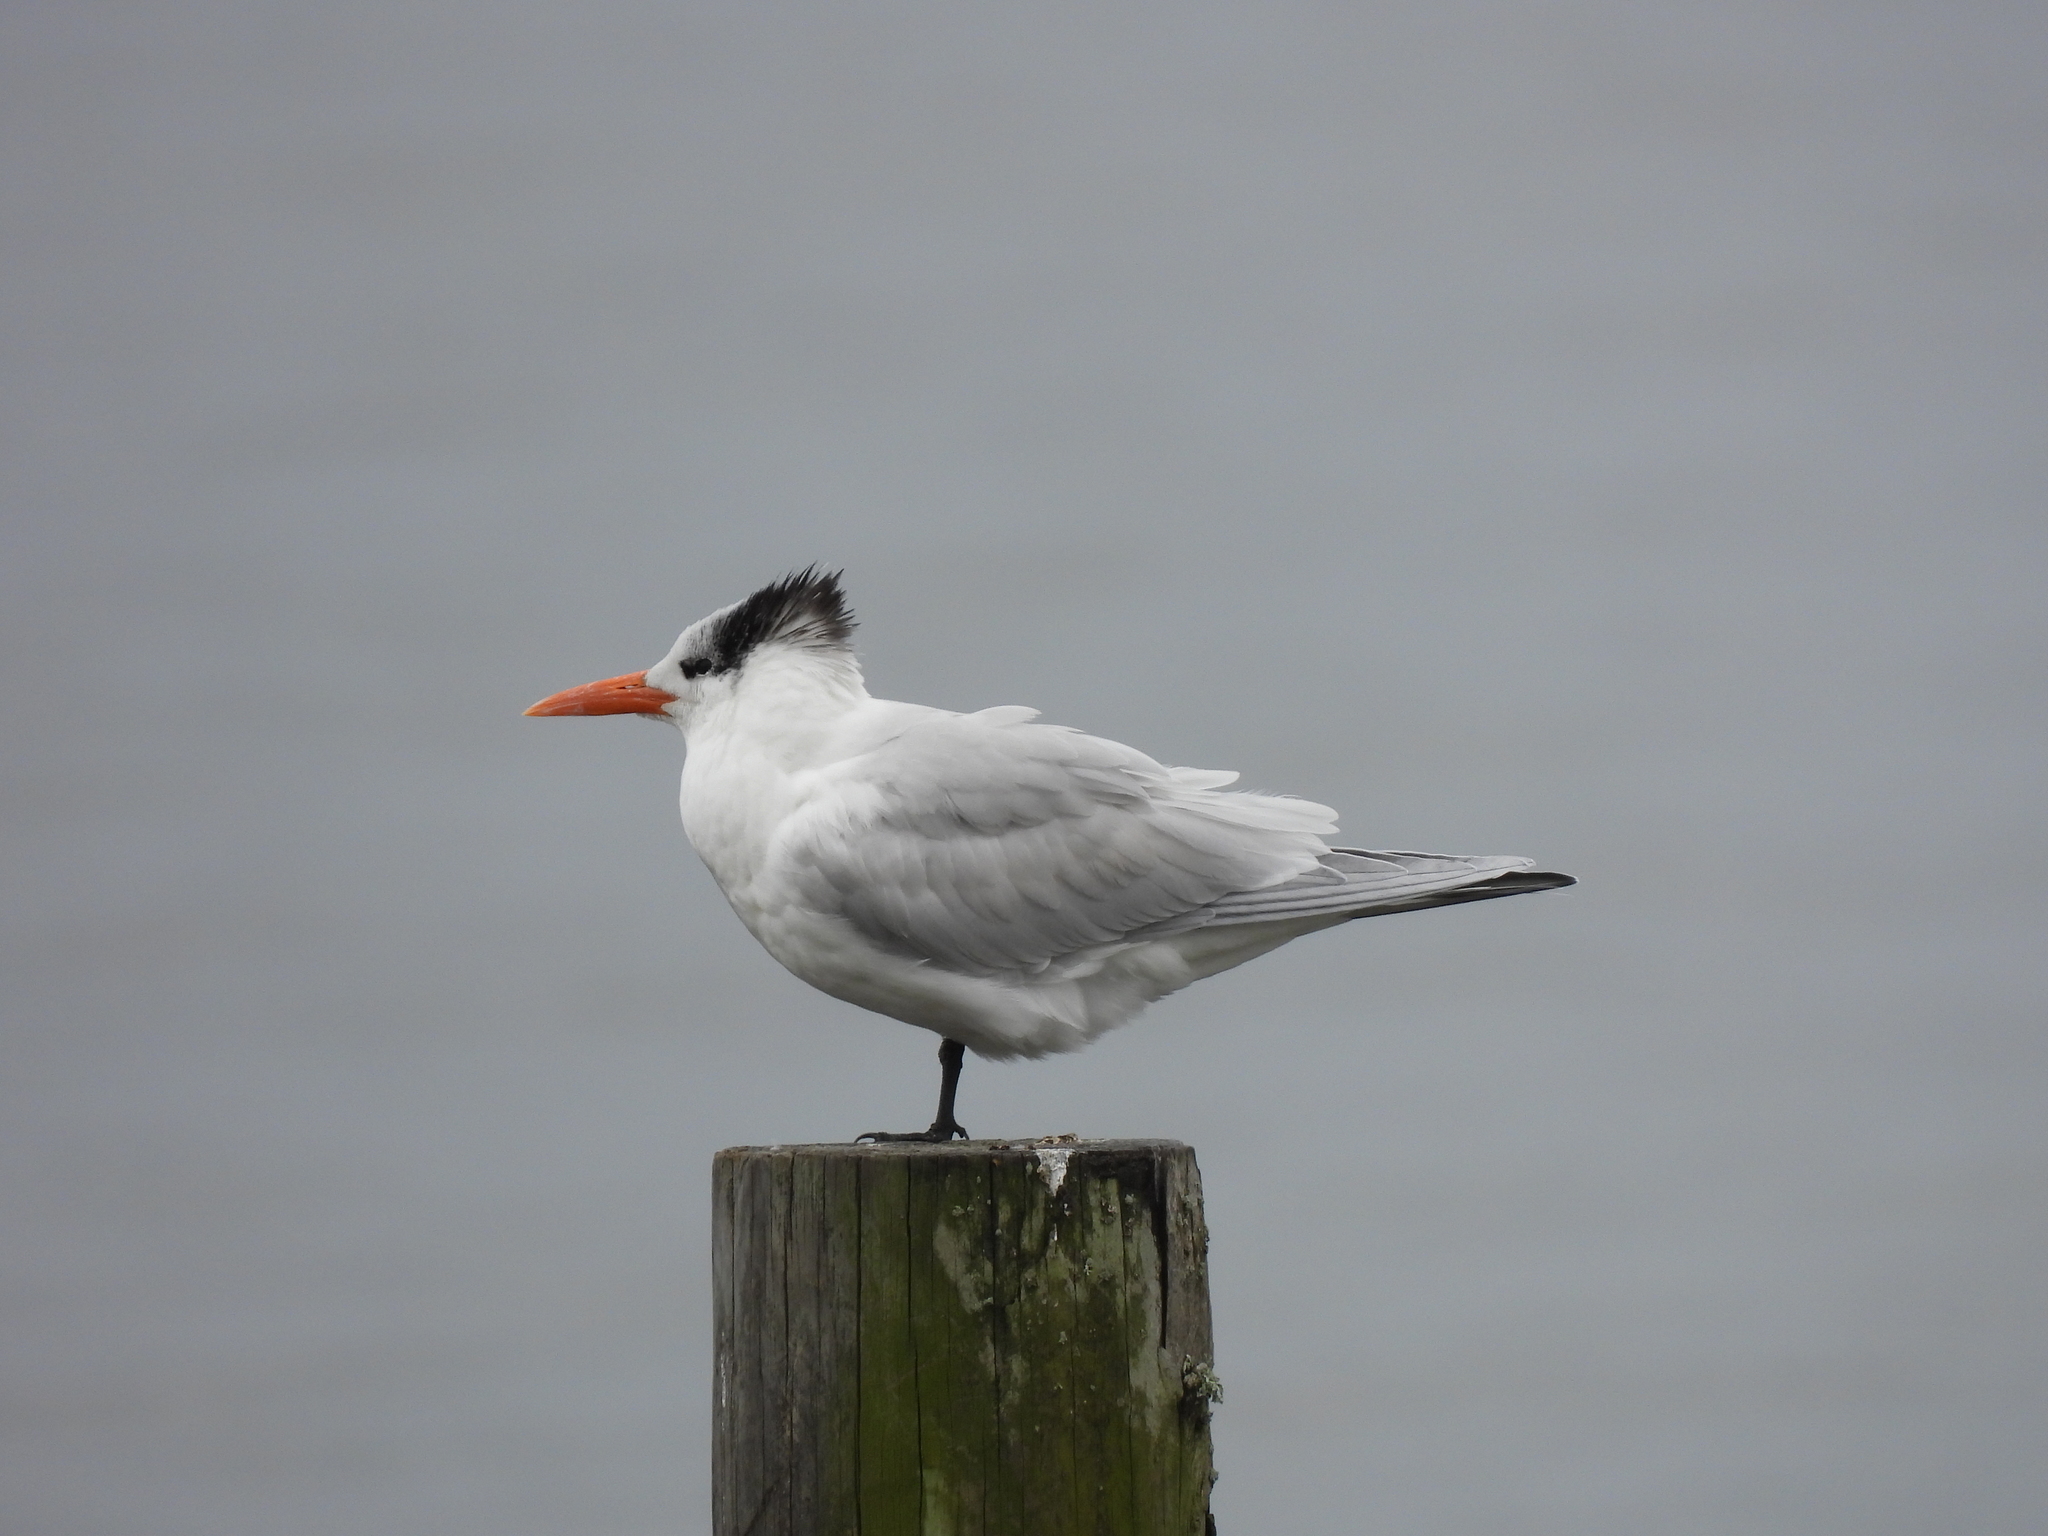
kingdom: Animalia
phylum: Chordata
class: Aves
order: Charadriiformes
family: Laridae
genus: Thalasseus
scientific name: Thalasseus maximus
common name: Royal tern
